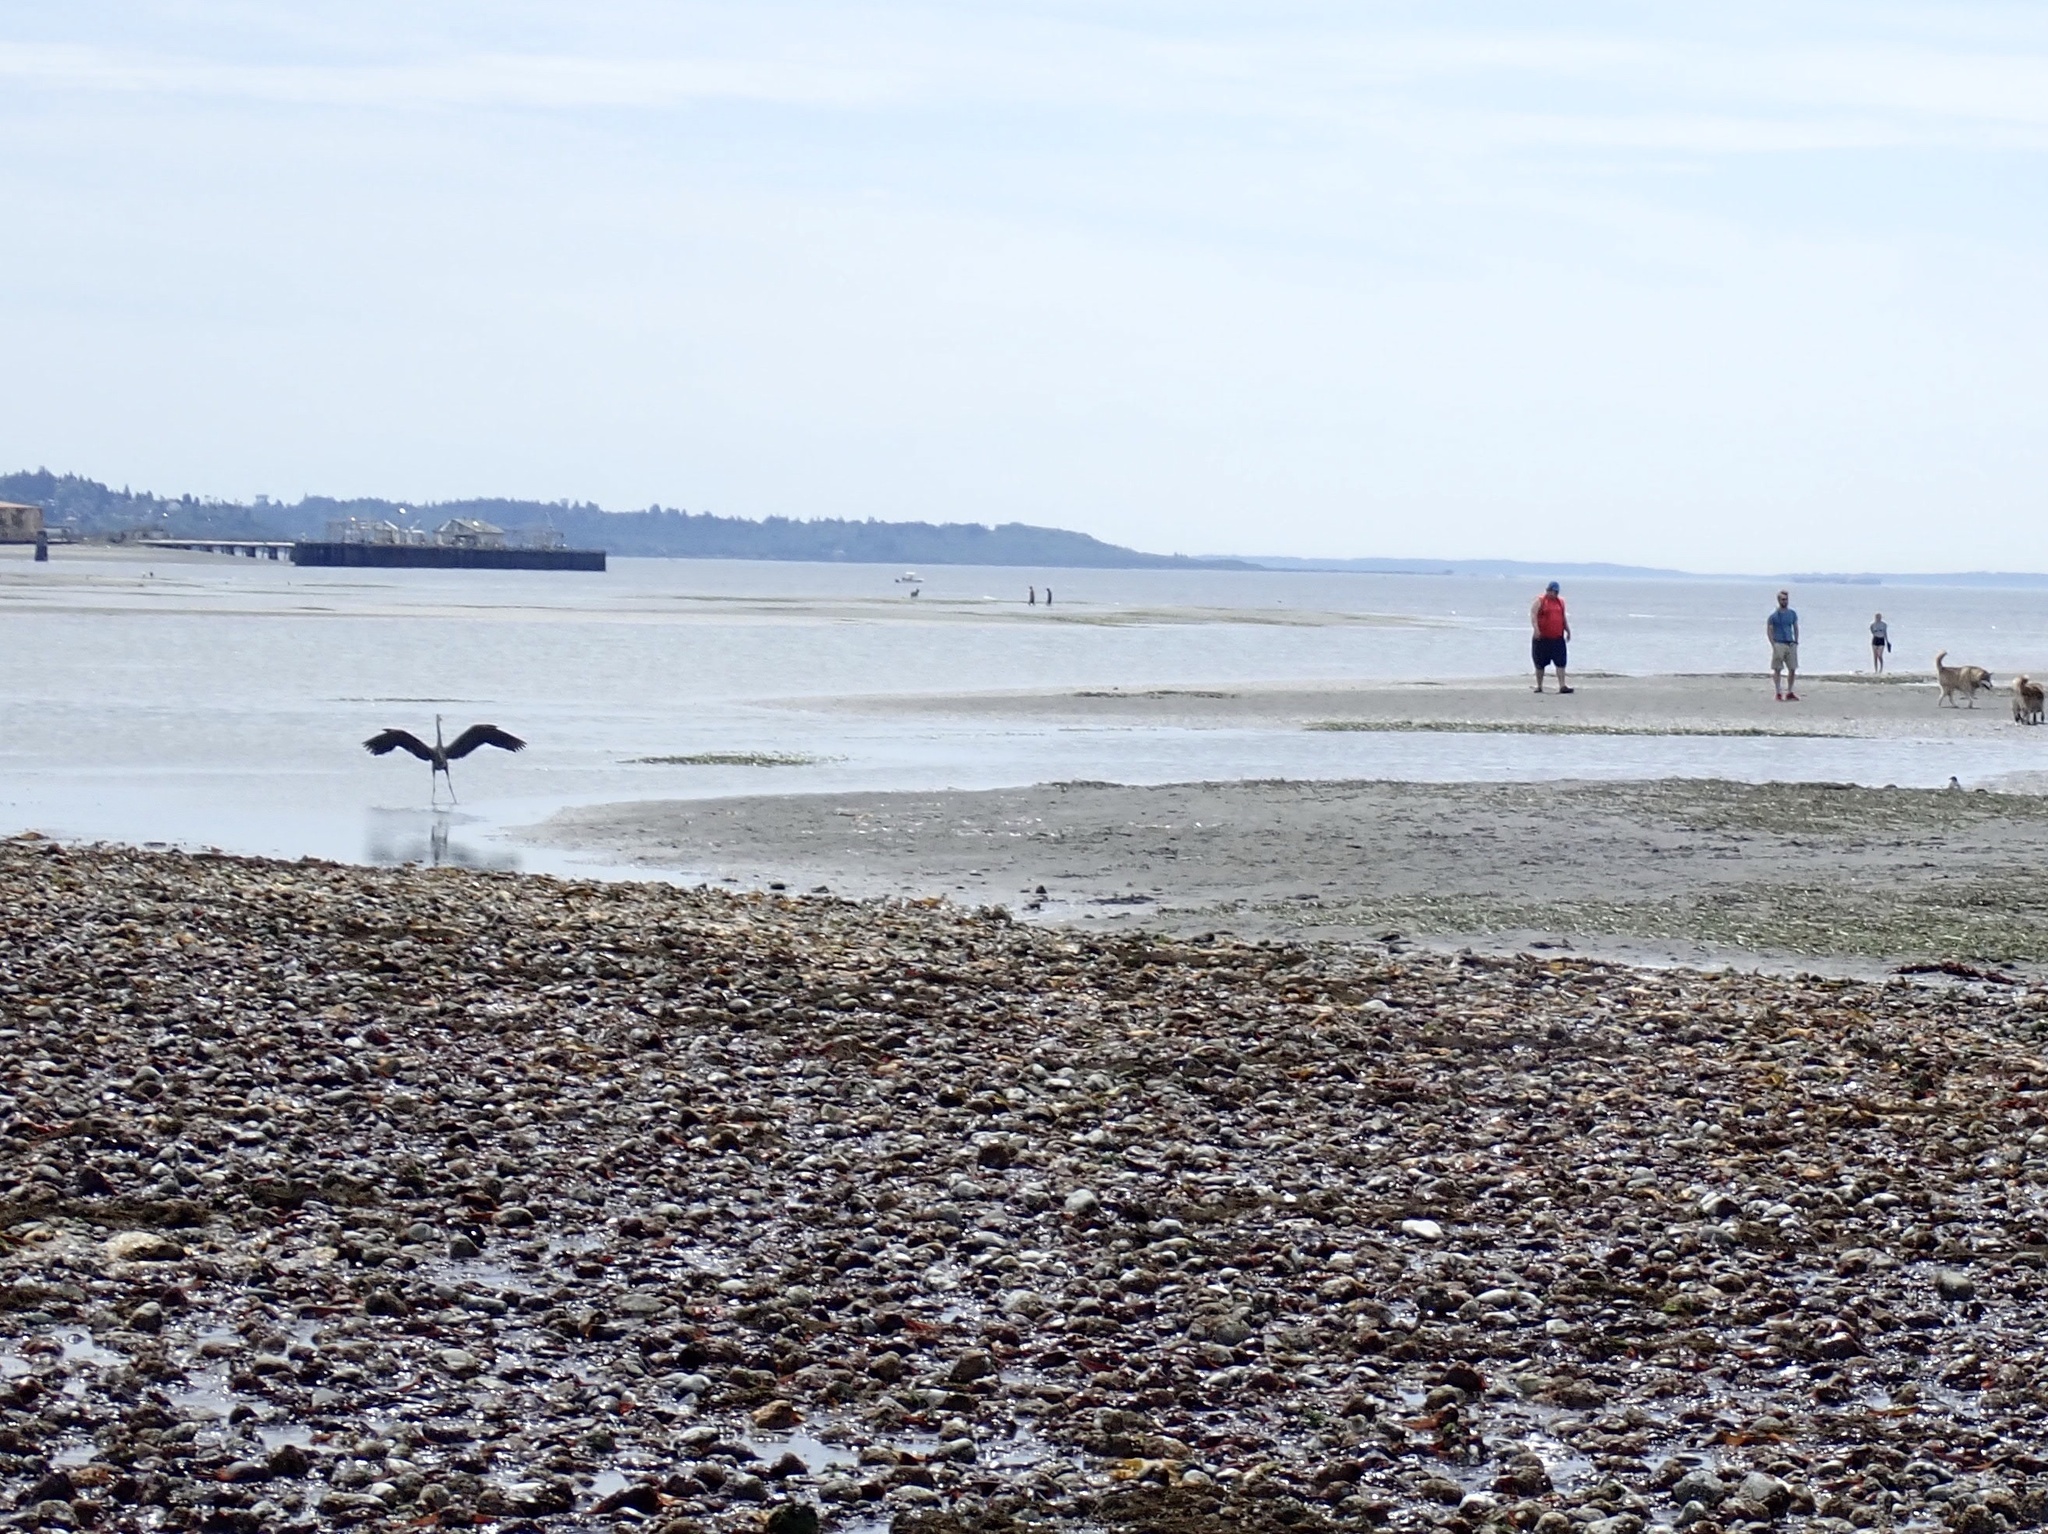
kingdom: Animalia
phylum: Chordata
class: Aves
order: Pelecaniformes
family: Ardeidae
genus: Ardea
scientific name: Ardea herodias
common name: Great blue heron
